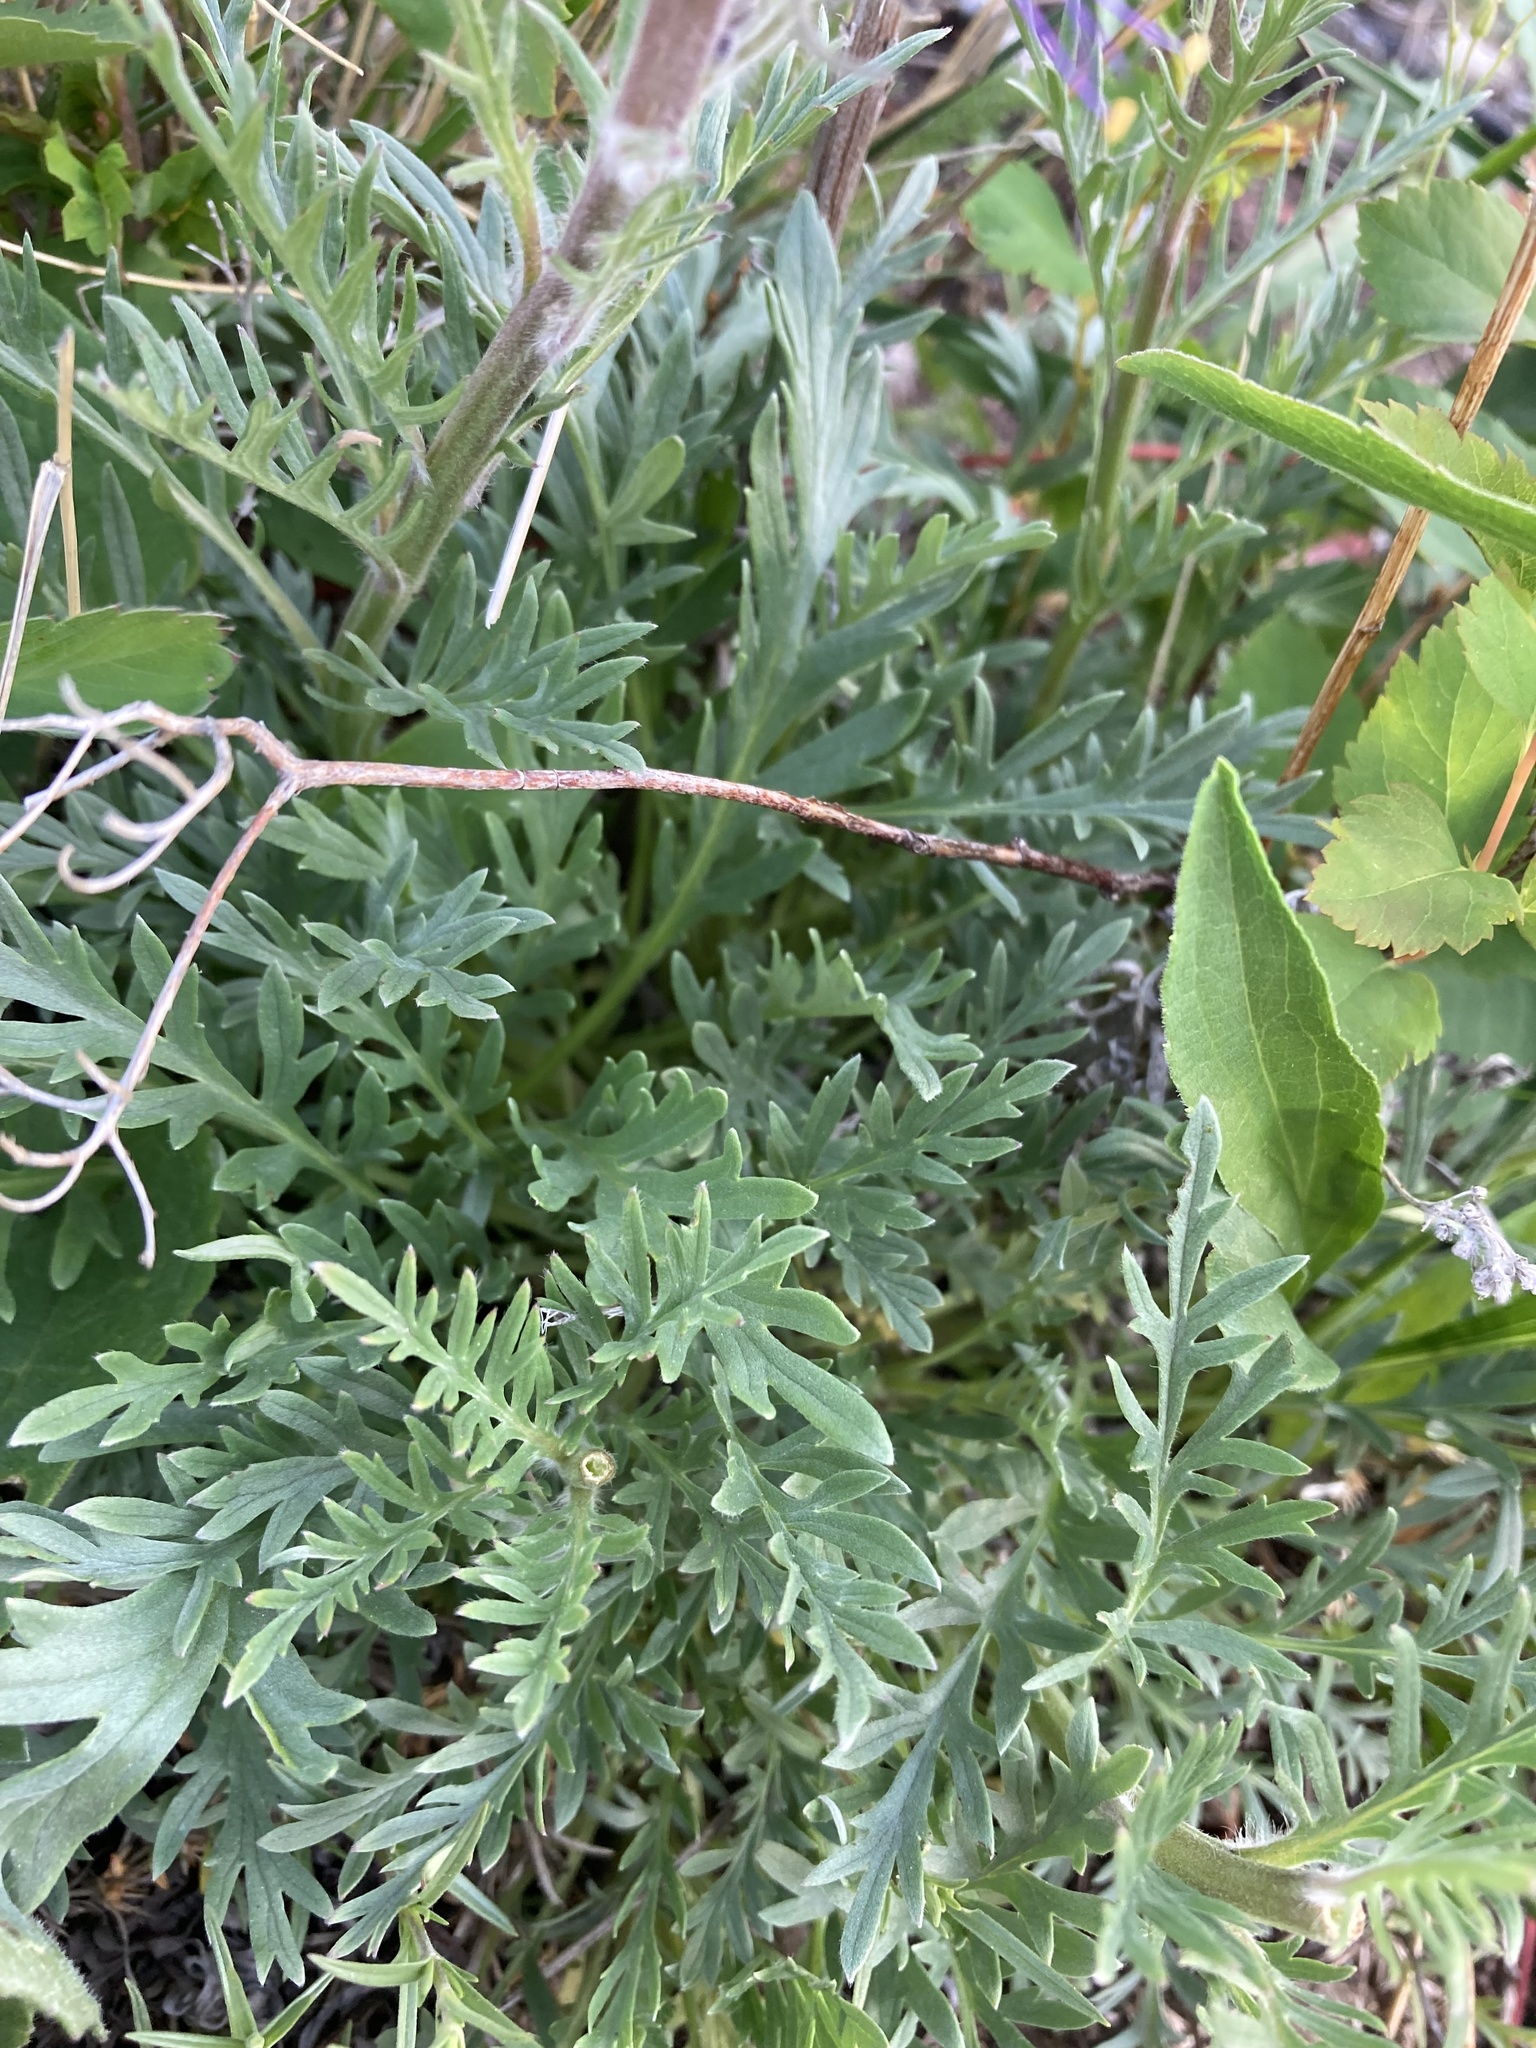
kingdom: Plantae
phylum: Tracheophyta
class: Magnoliopsida
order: Boraginales
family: Hydrophyllaceae
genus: Phacelia
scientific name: Phacelia sericea
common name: Silky phacelia
